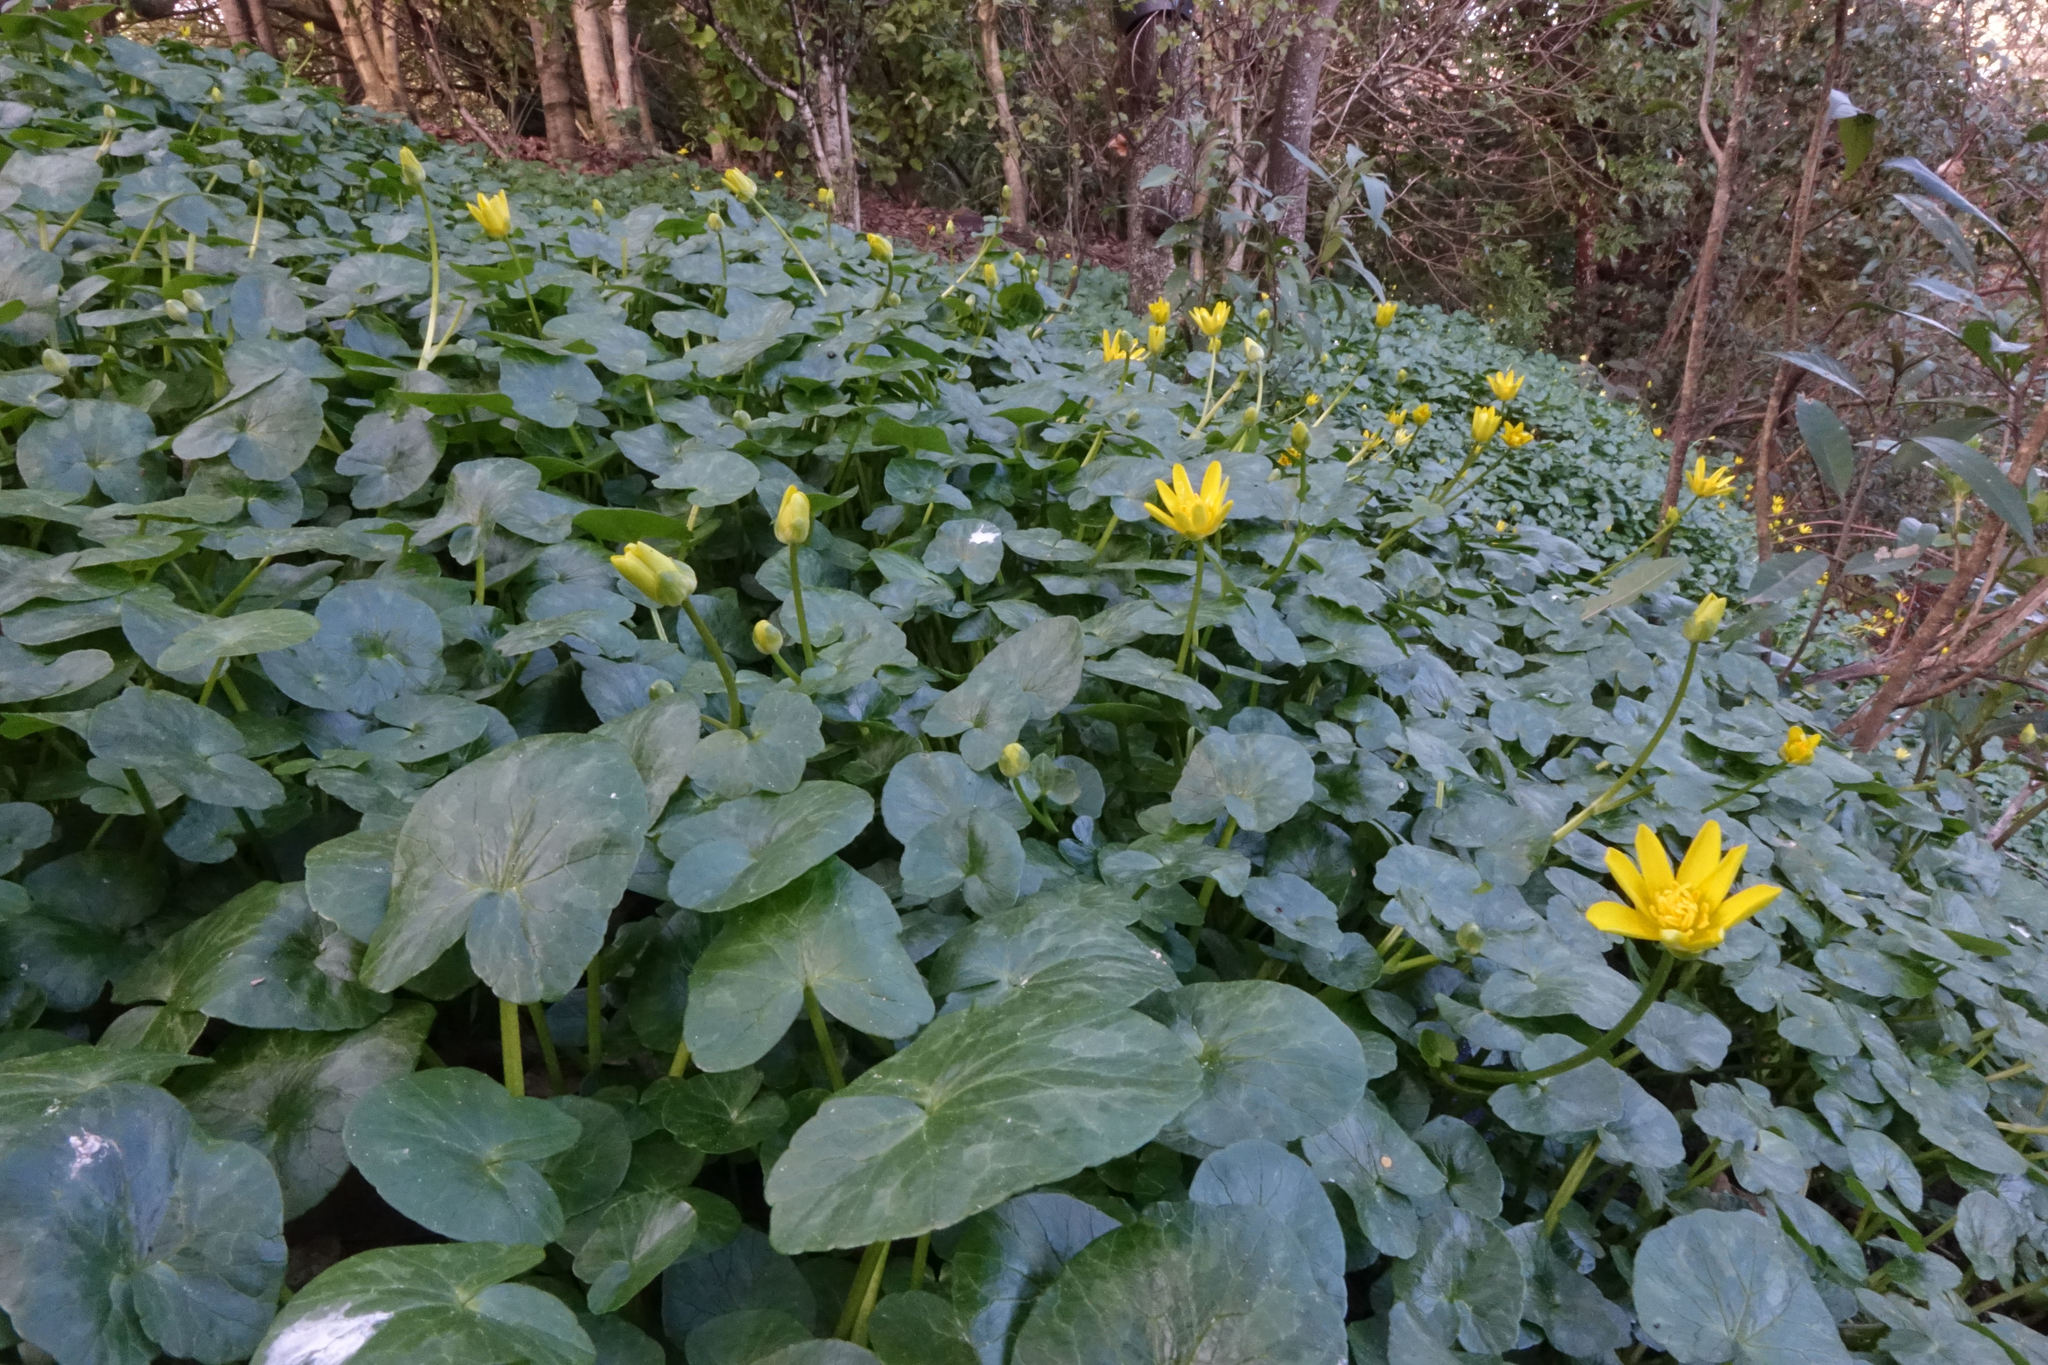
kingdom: Plantae
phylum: Tracheophyta
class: Magnoliopsida
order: Ranunculales
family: Ranunculaceae
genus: Ficaria
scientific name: Ficaria verna
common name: Lesser celandine
